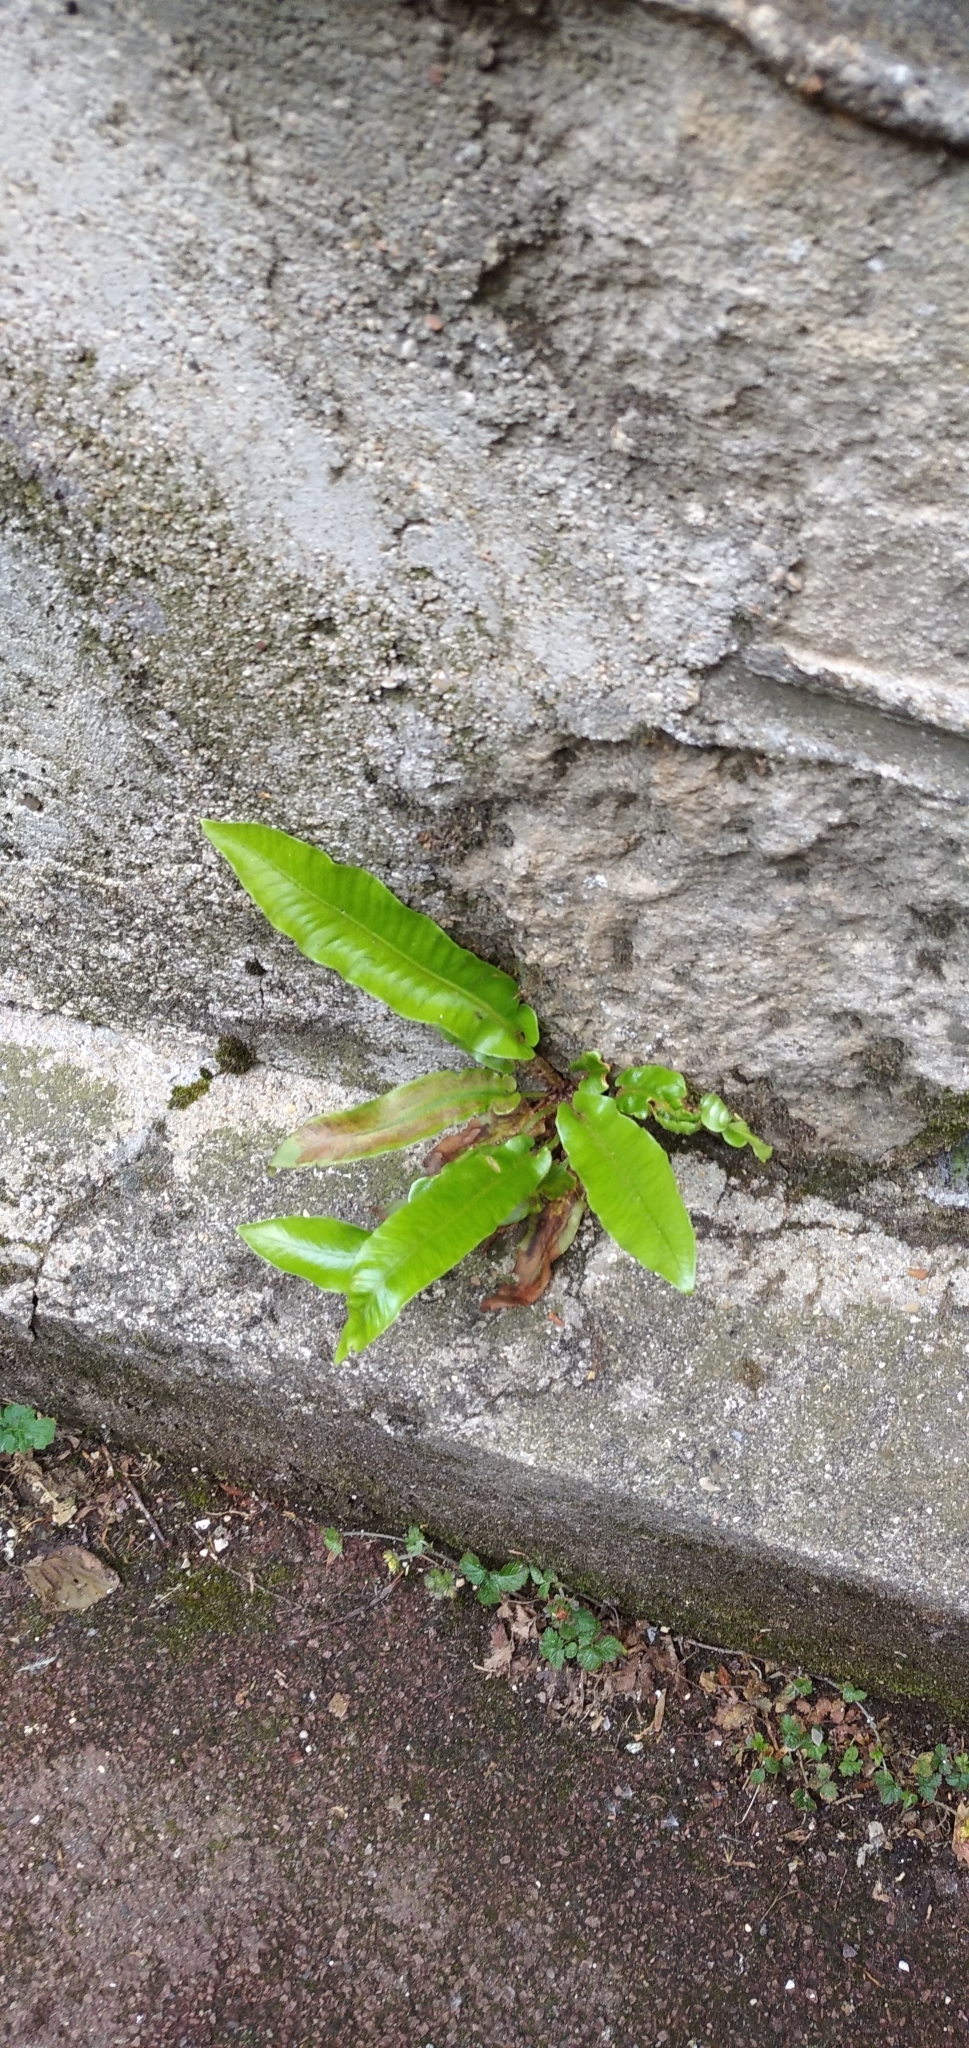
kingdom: Plantae
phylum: Tracheophyta
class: Polypodiopsida
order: Polypodiales
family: Aspleniaceae
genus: Asplenium
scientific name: Asplenium scolopendrium
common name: Hart's-tongue fern
